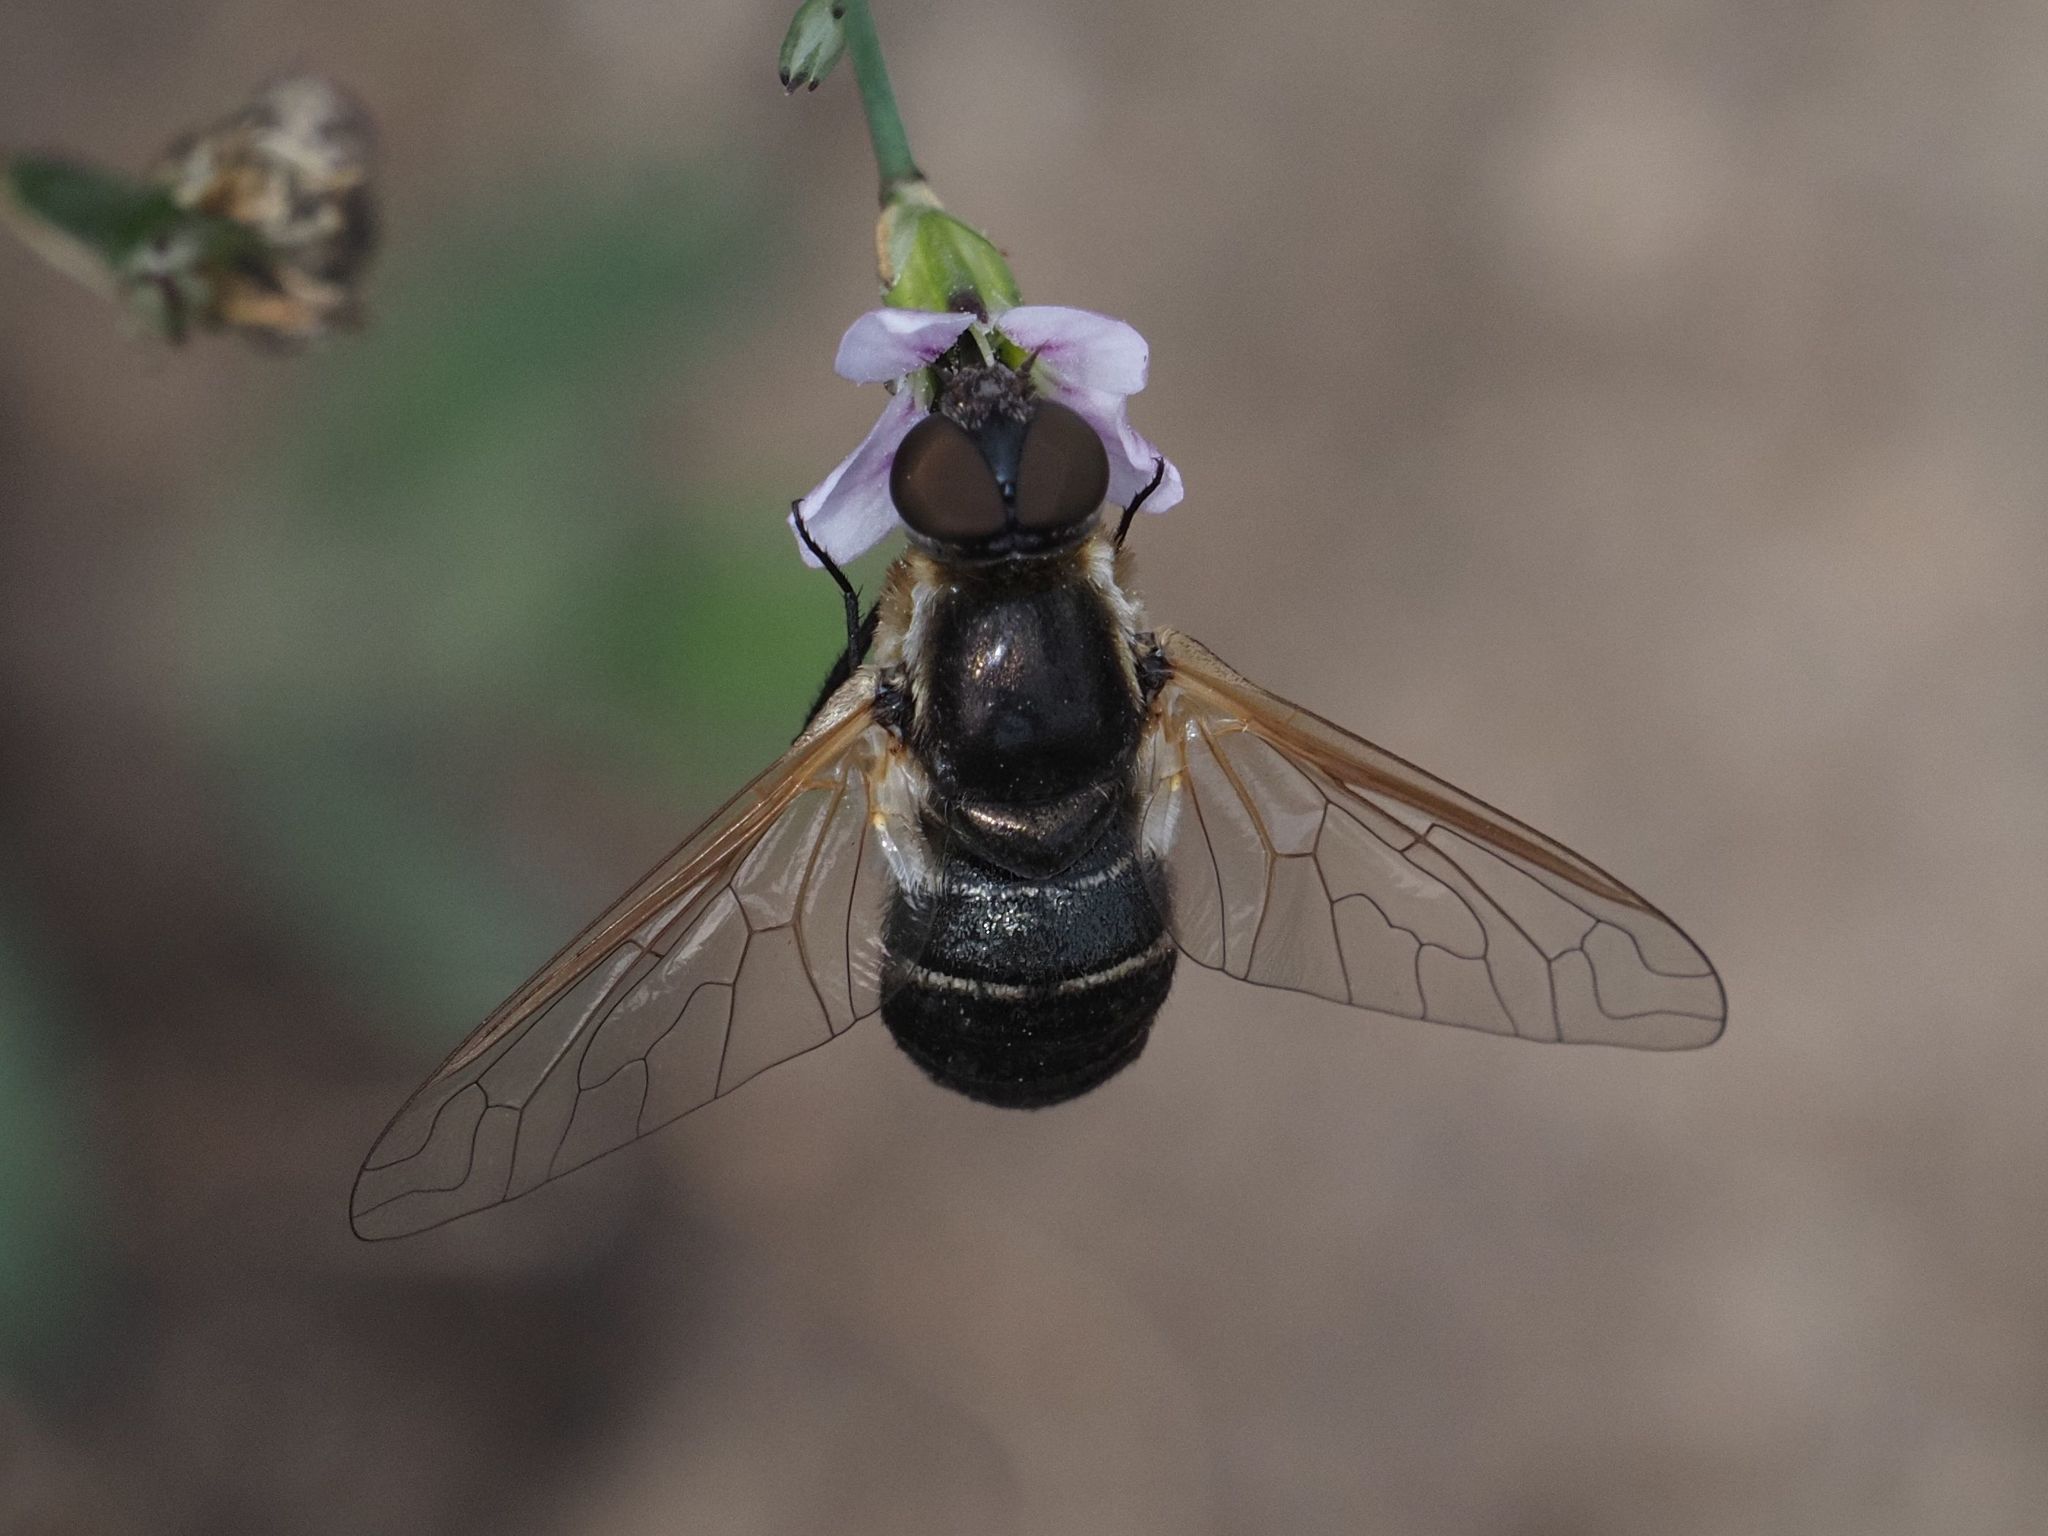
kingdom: Animalia
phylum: Arthropoda
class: Insecta
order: Diptera
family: Bombyliidae
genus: Micomitra
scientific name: Micomitra stupida
